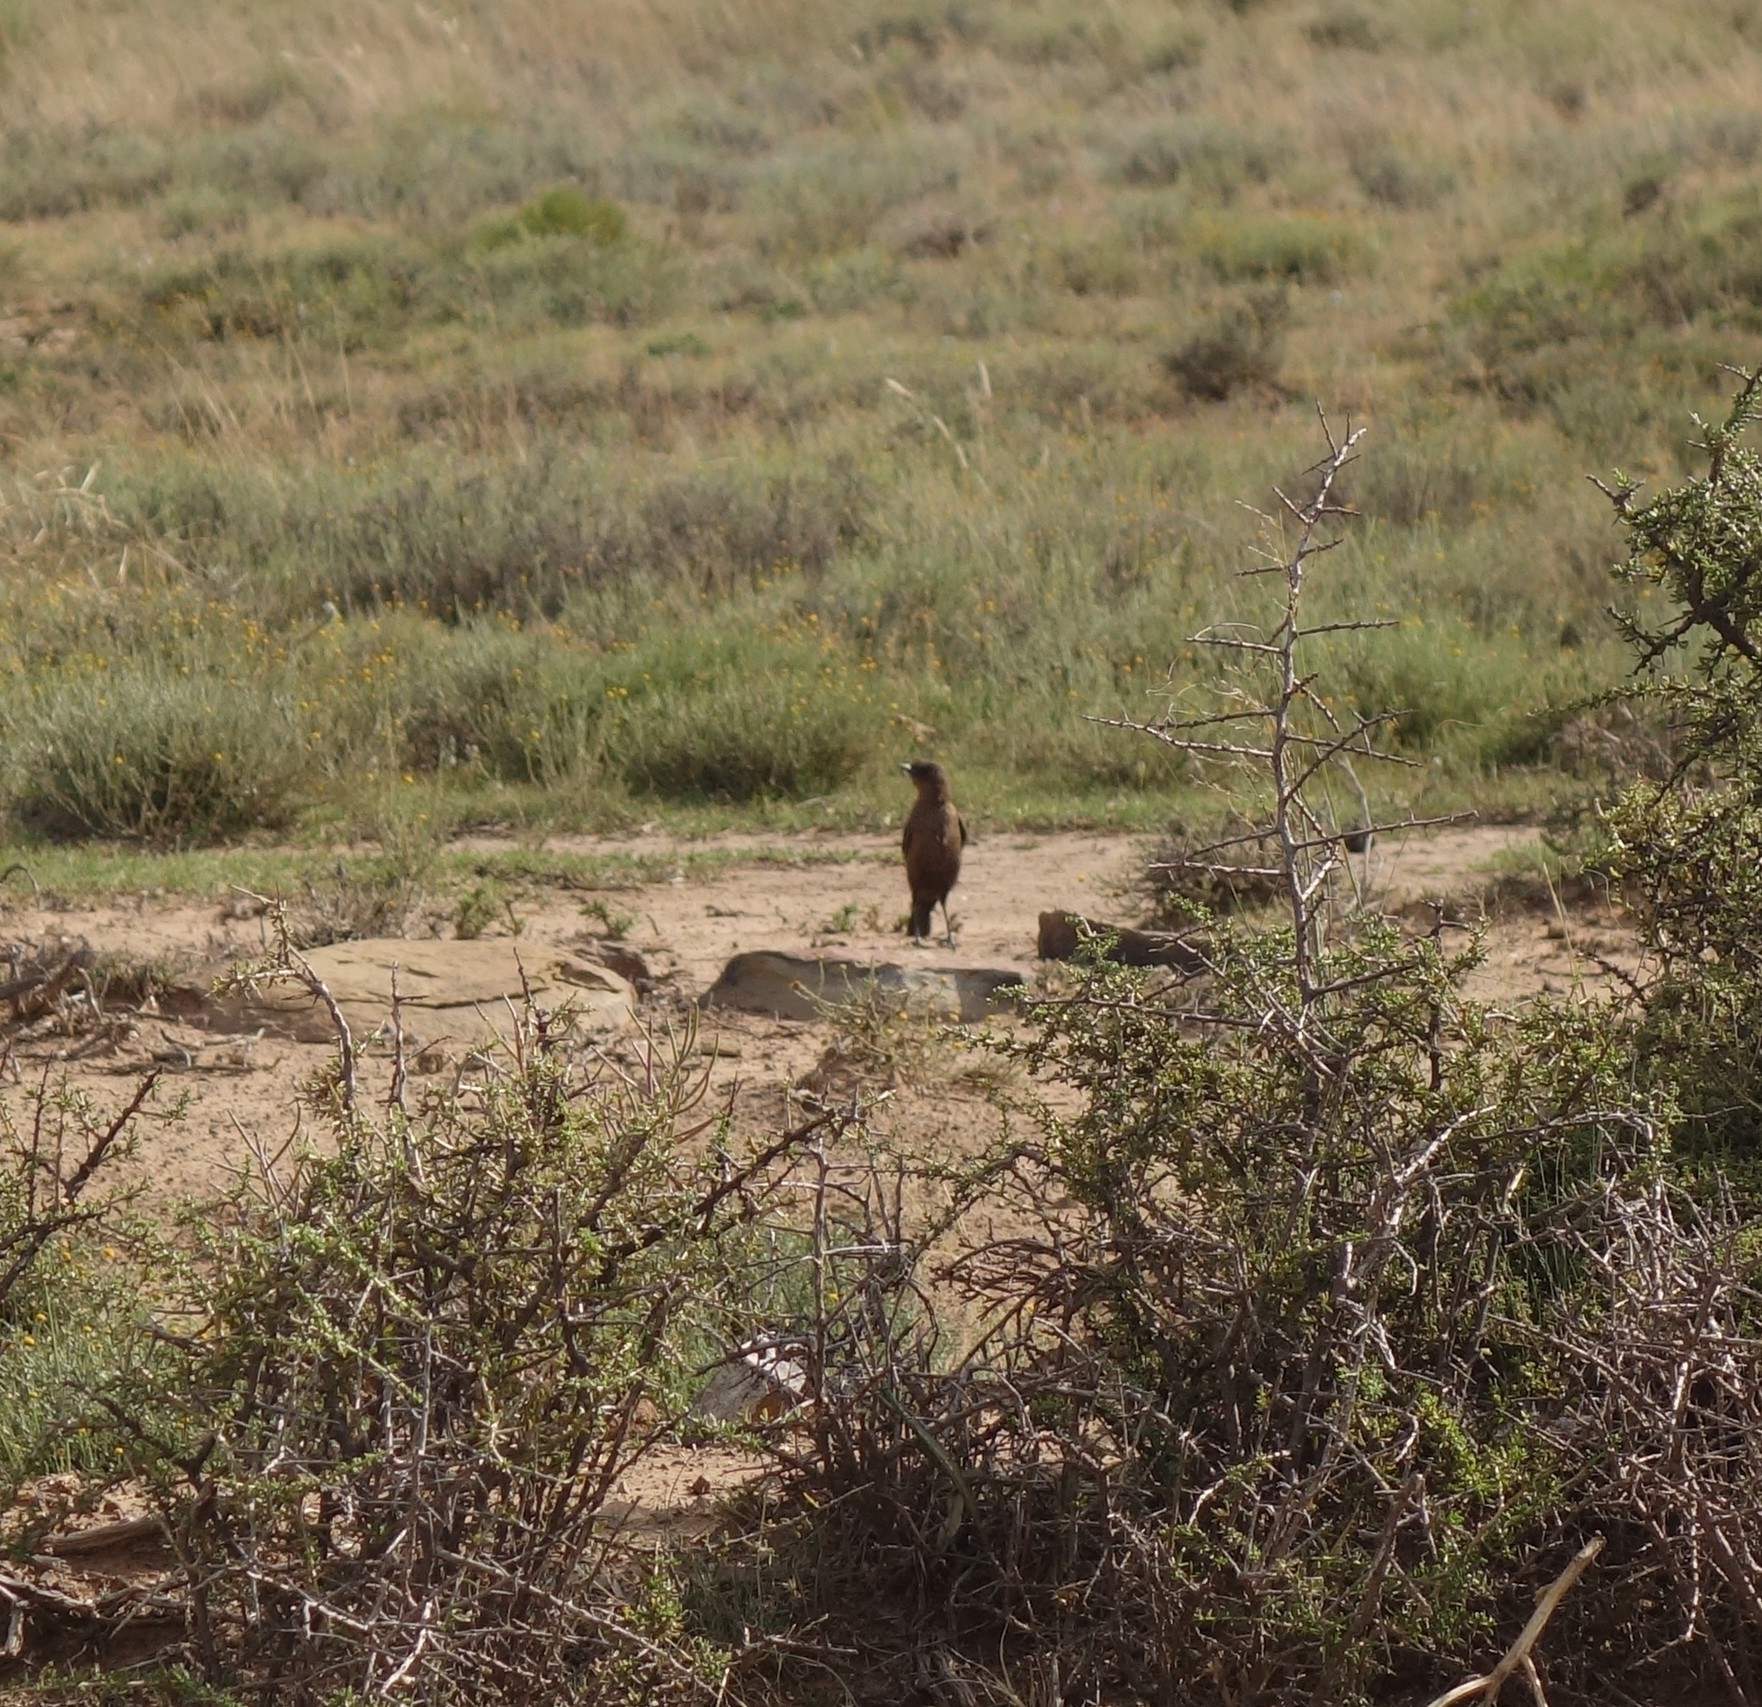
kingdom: Animalia
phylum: Chordata
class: Aves
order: Passeriformes
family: Muscicapidae
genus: Myrmecocichla
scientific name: Myrmecocichla formicivora
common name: Ant-eating chat
